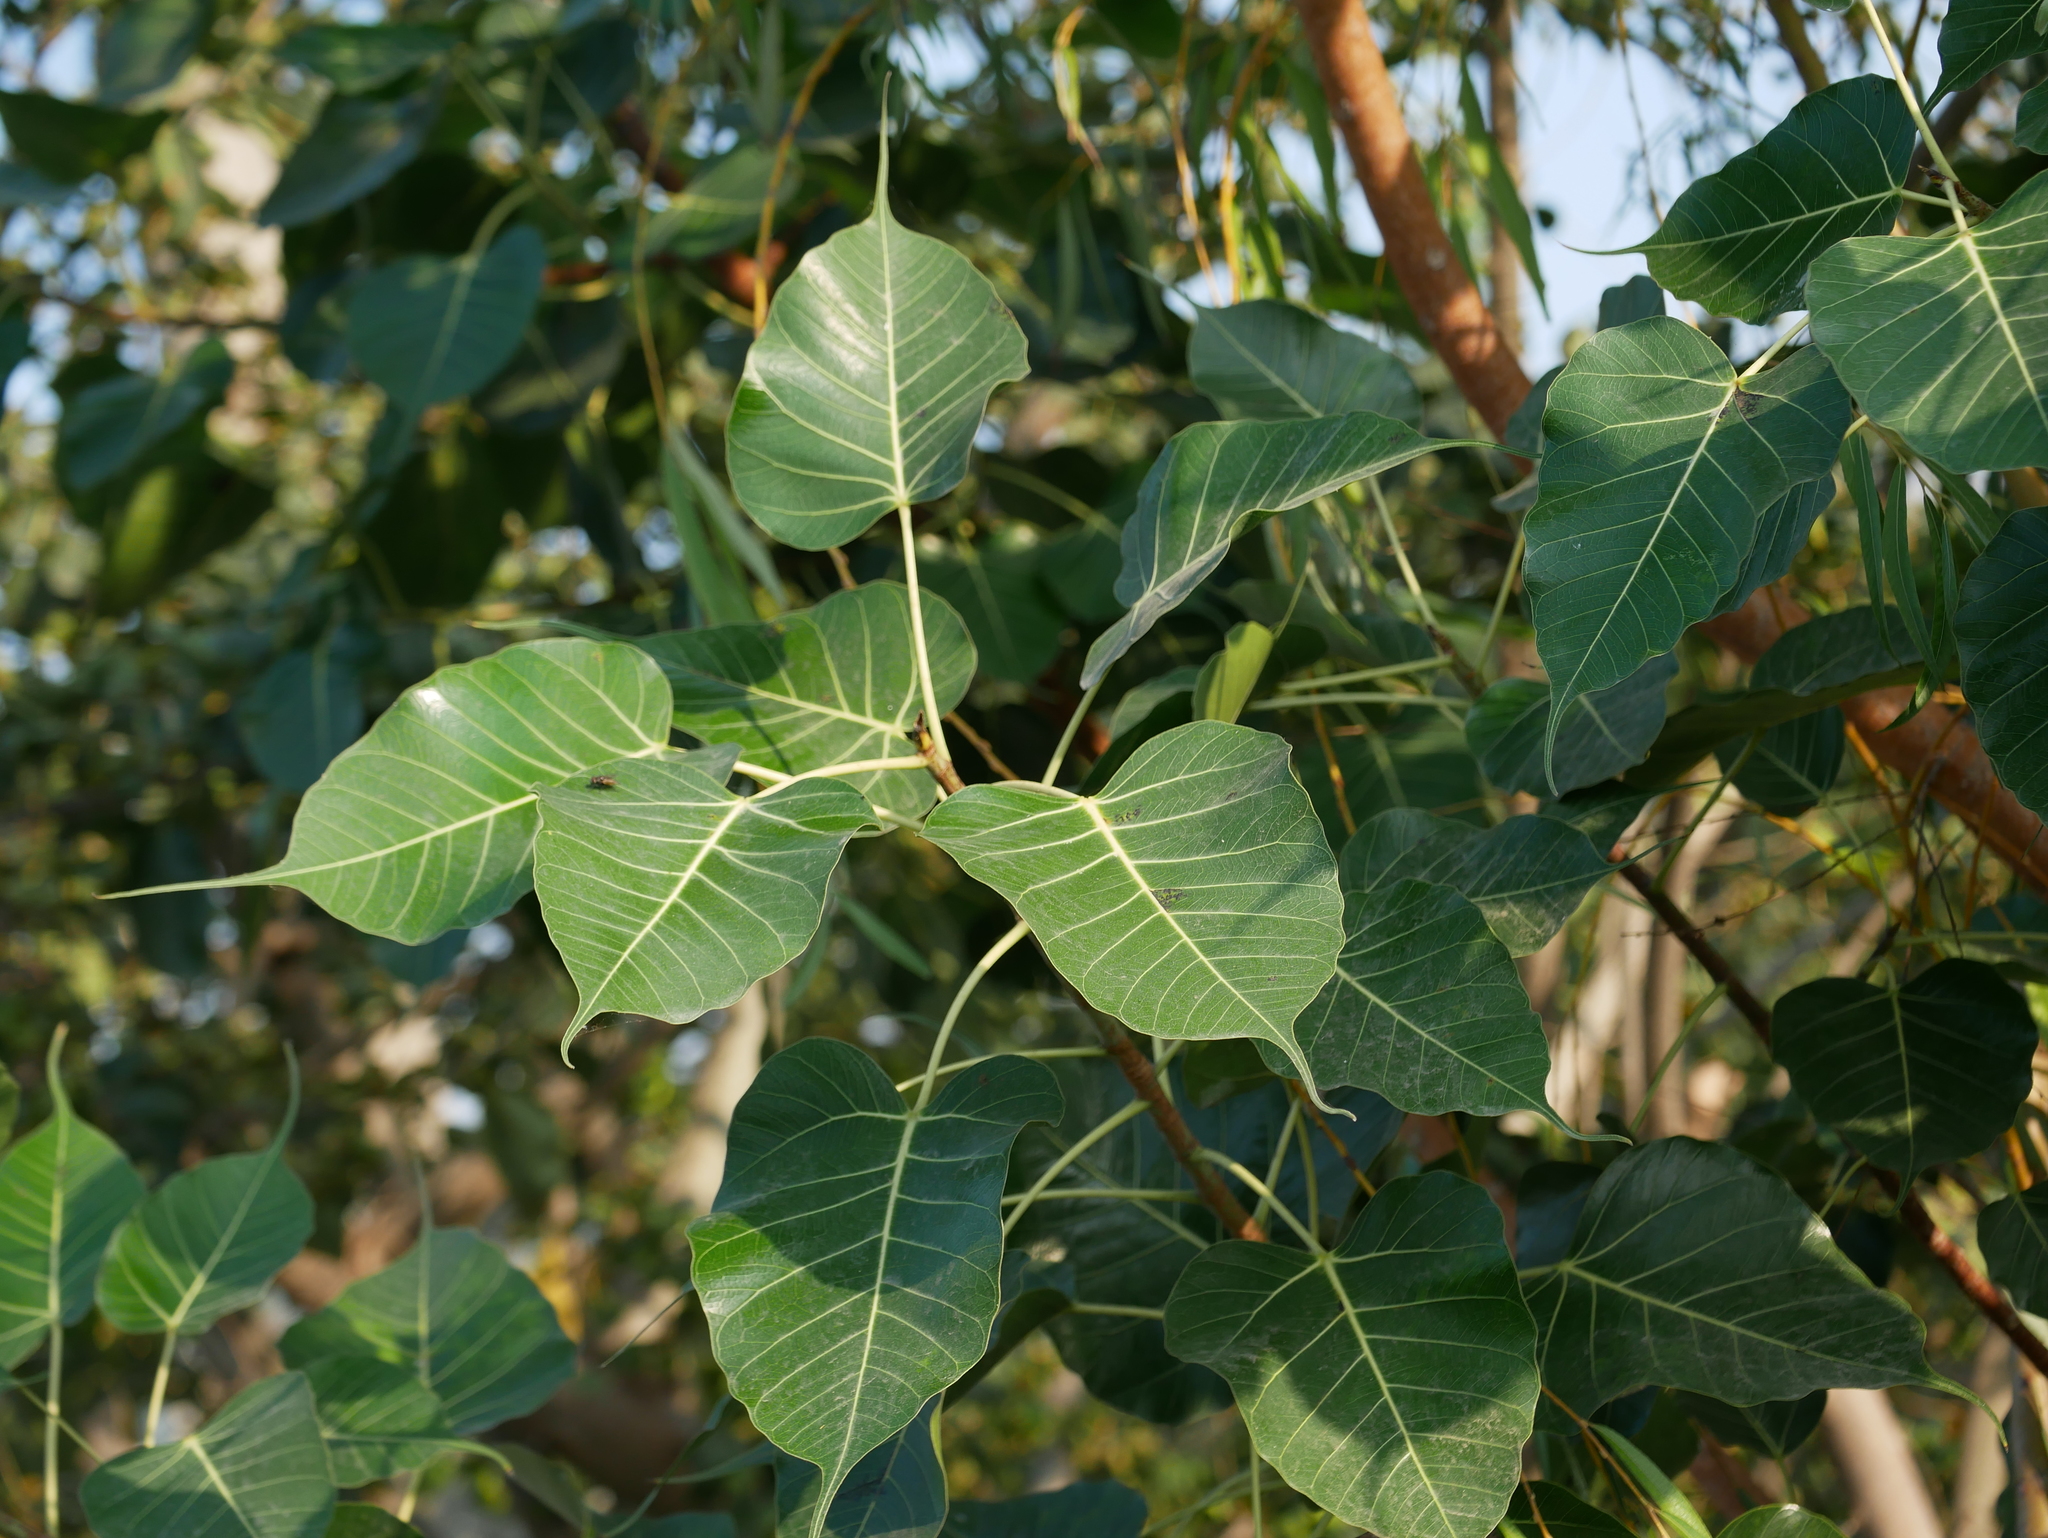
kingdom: Plantae
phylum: Tracheophyta
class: Magnoliopsida
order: Rosales
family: Moraceae
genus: Ficus
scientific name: Ficus religiosa
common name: Bodhi tree
